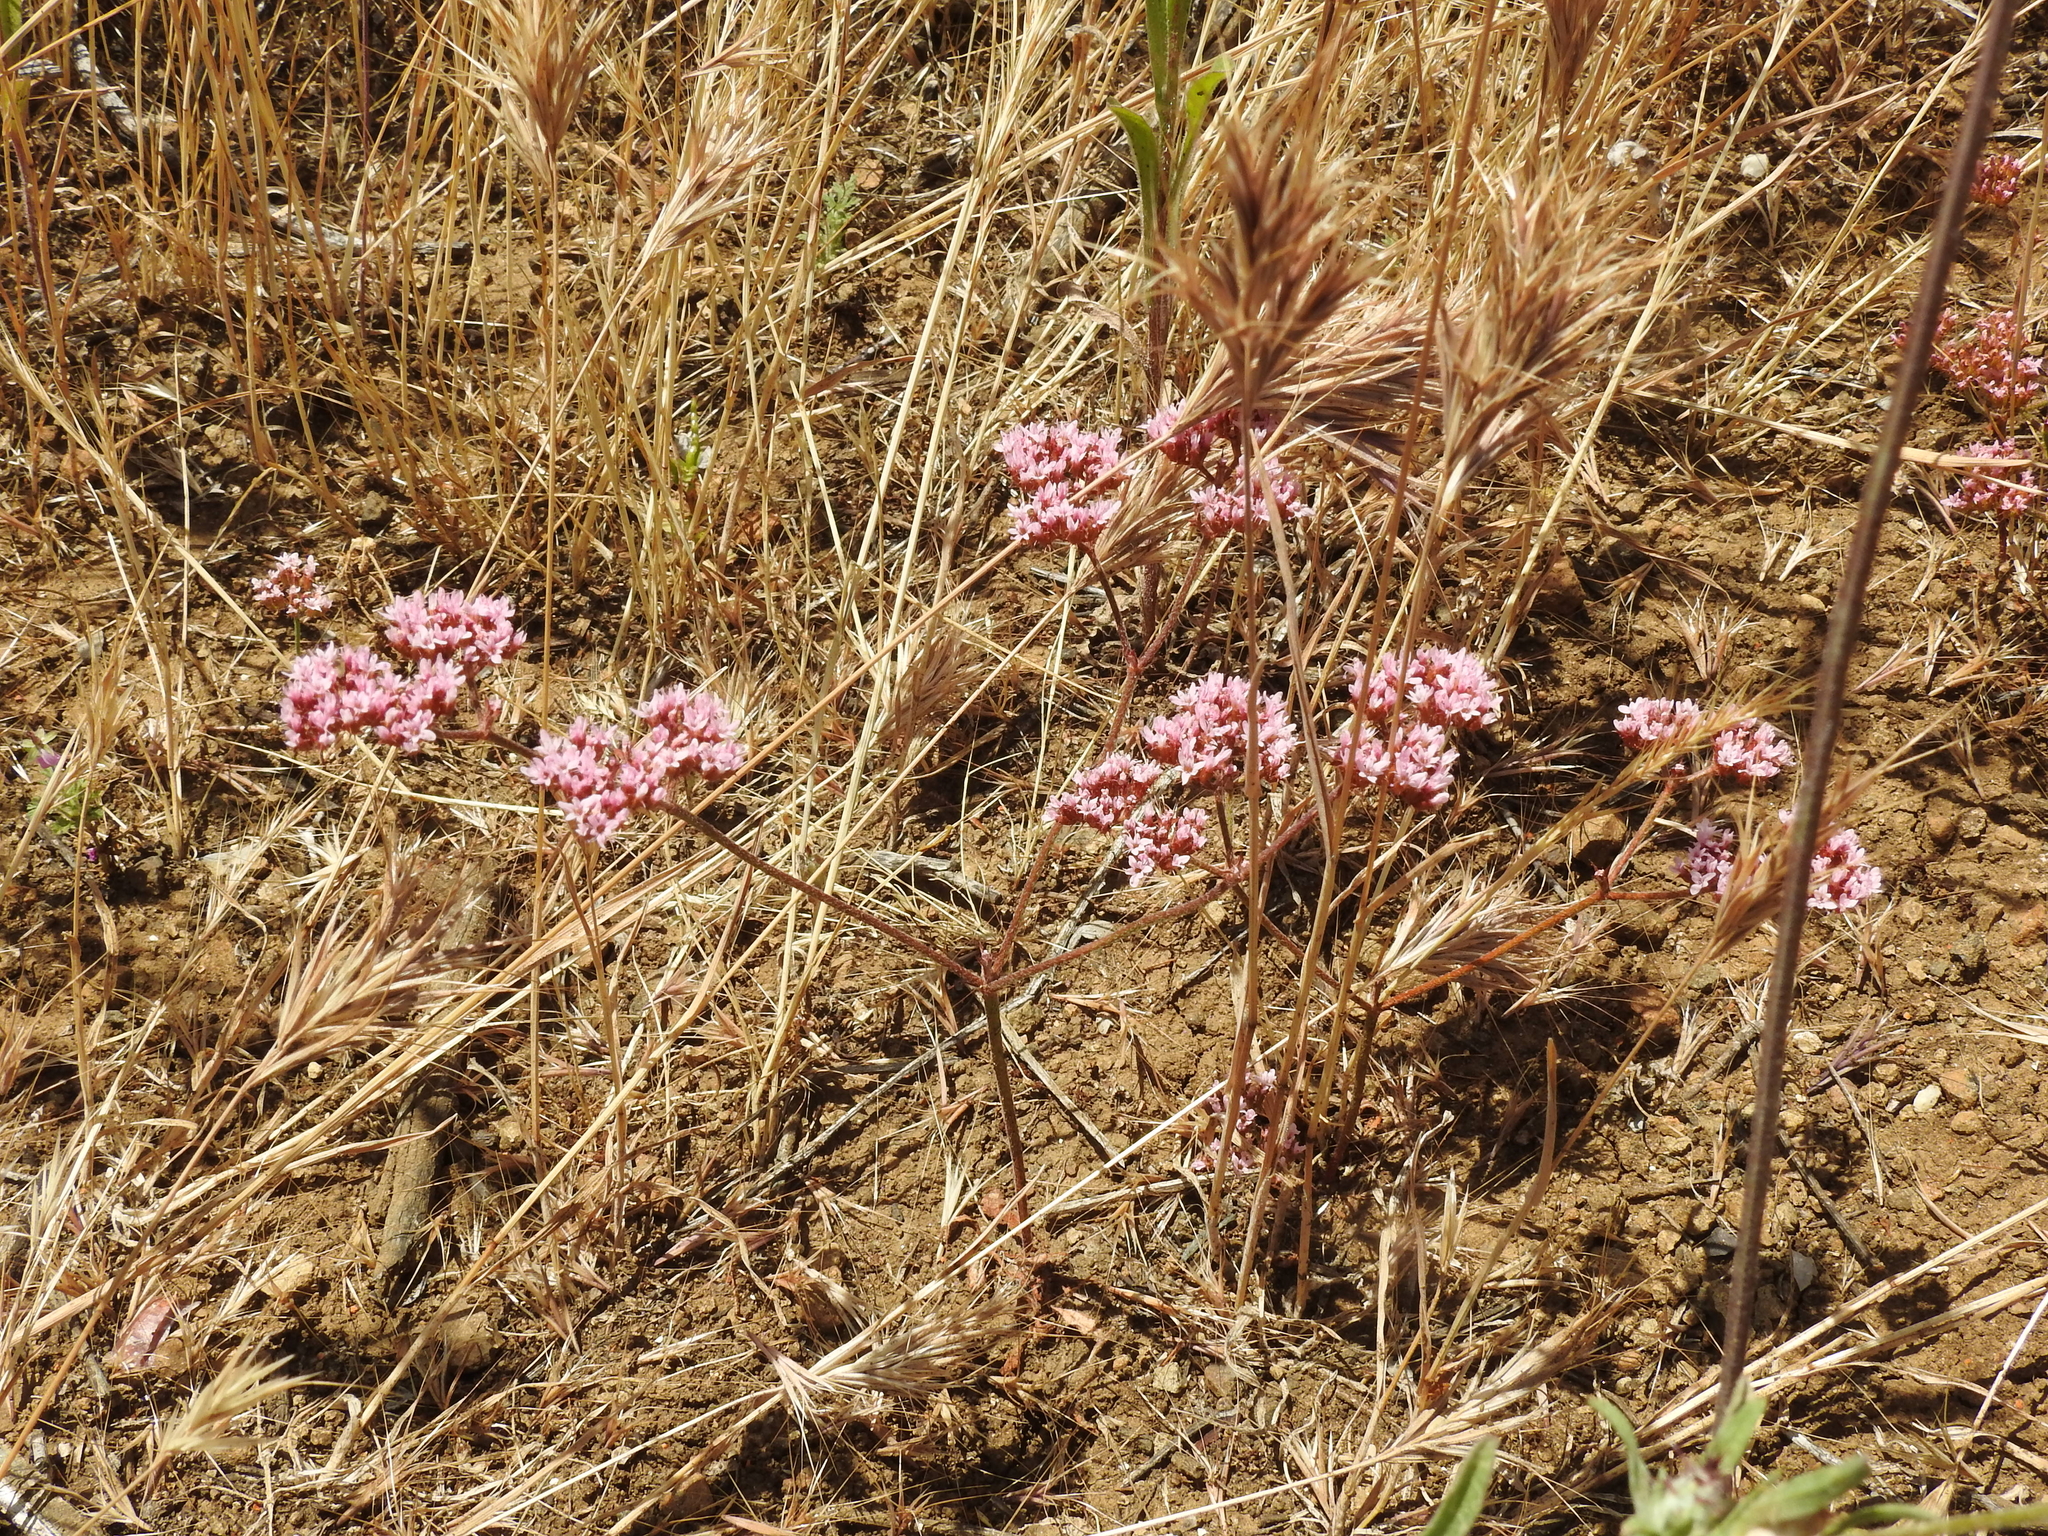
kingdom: Plantae
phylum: Tracheophyta
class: Magnoliopsida
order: Caryophyllales
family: Polygonaceae
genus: Chorizanthe
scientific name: Chorizanthe staticoides
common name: Turkish rugging
